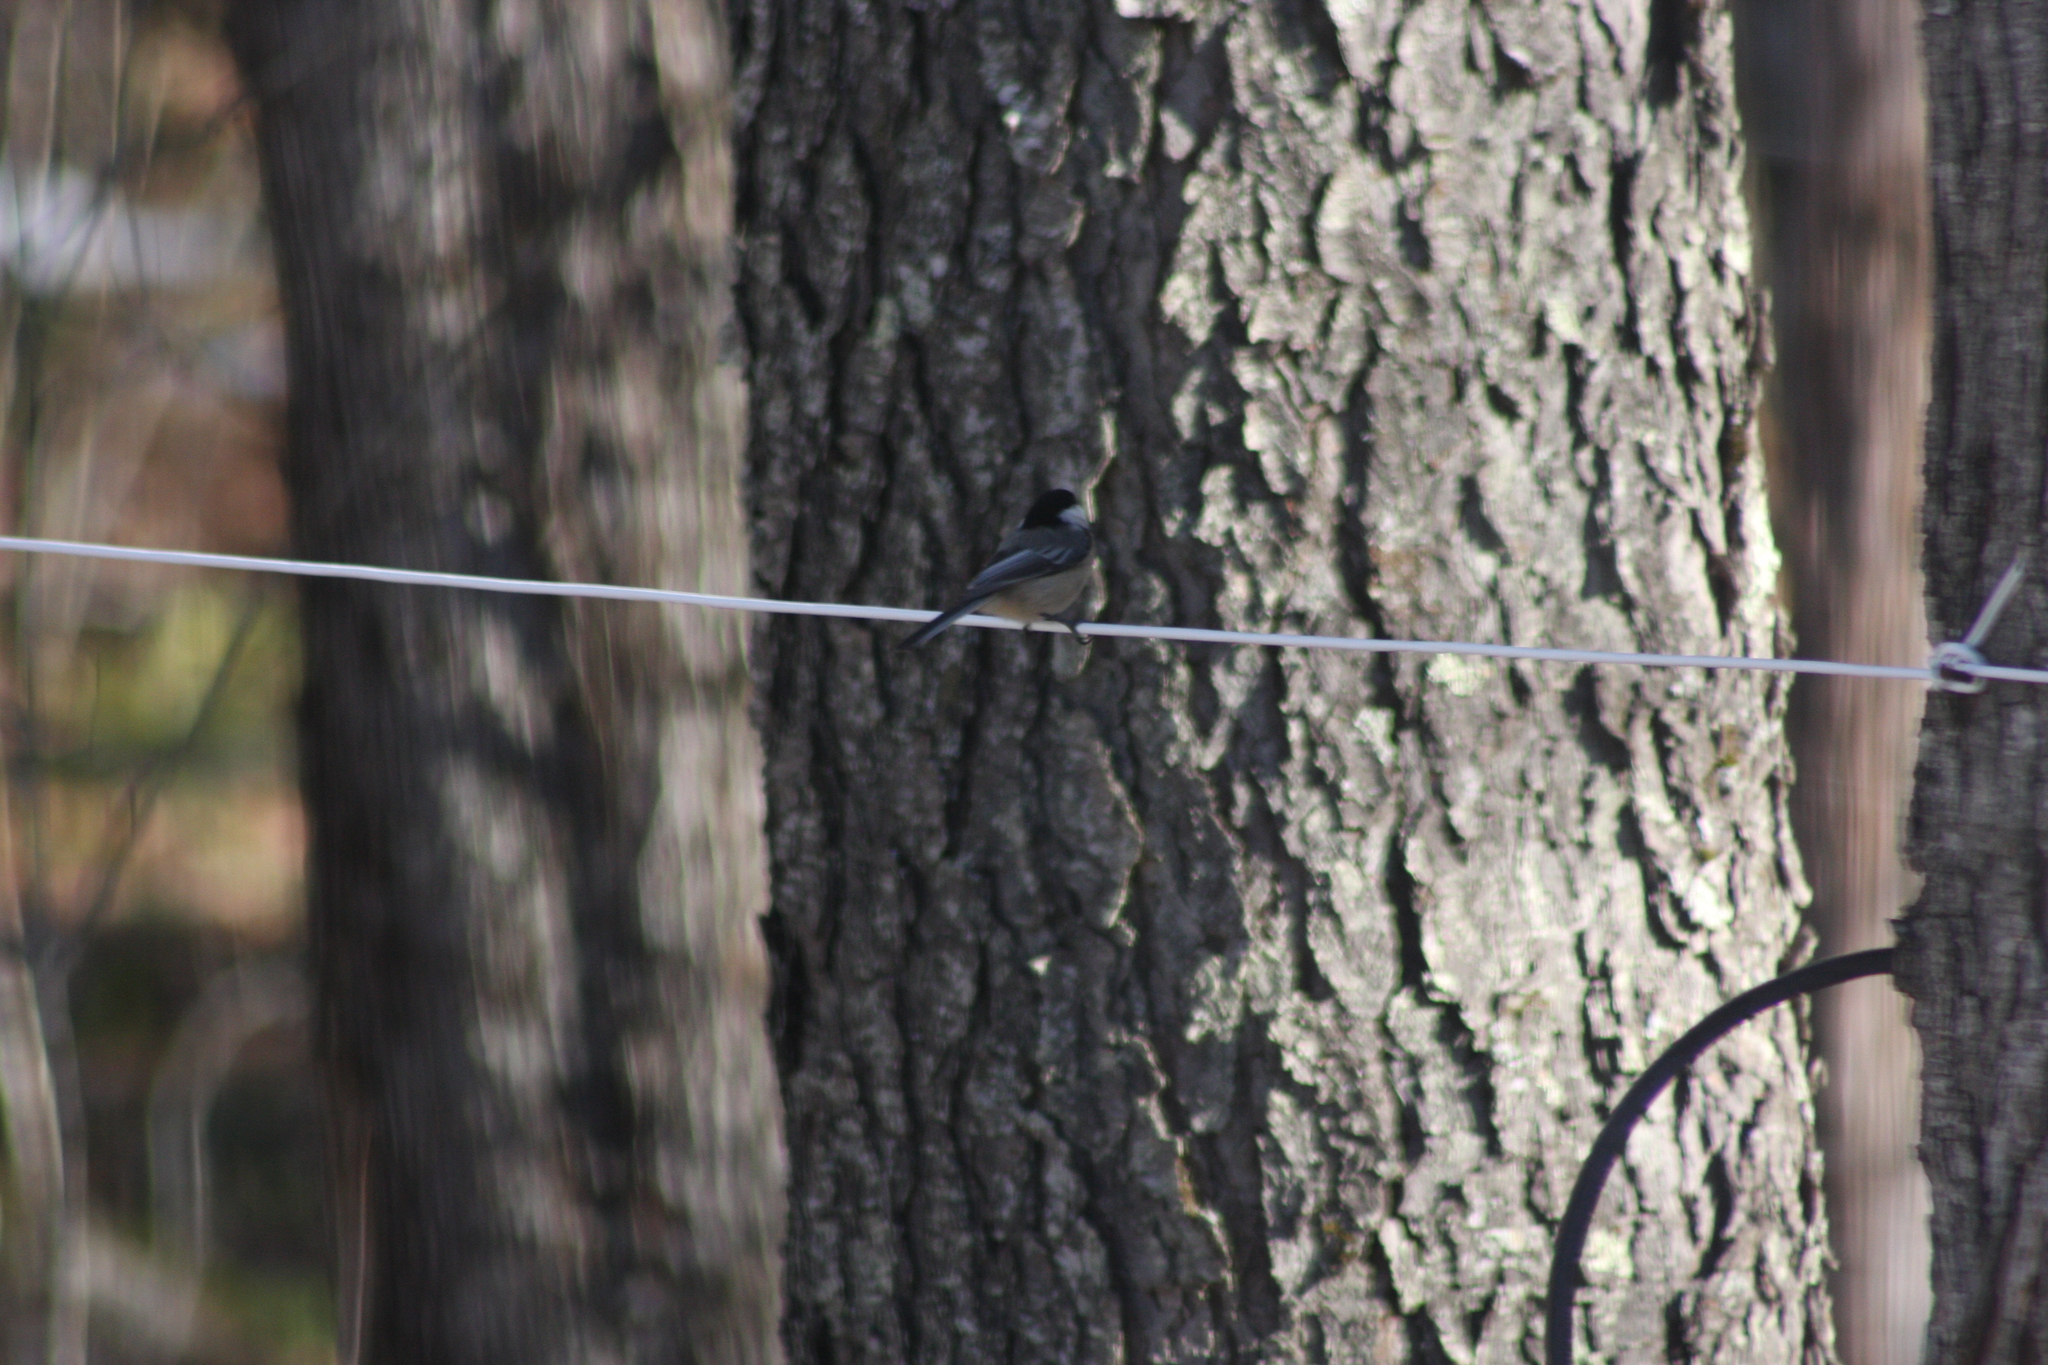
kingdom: Animalia
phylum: Chordata
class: Aves
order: Passeriformes
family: Paridae
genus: Poecile
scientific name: Poecile atricapillus
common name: Black-capped chickadee
